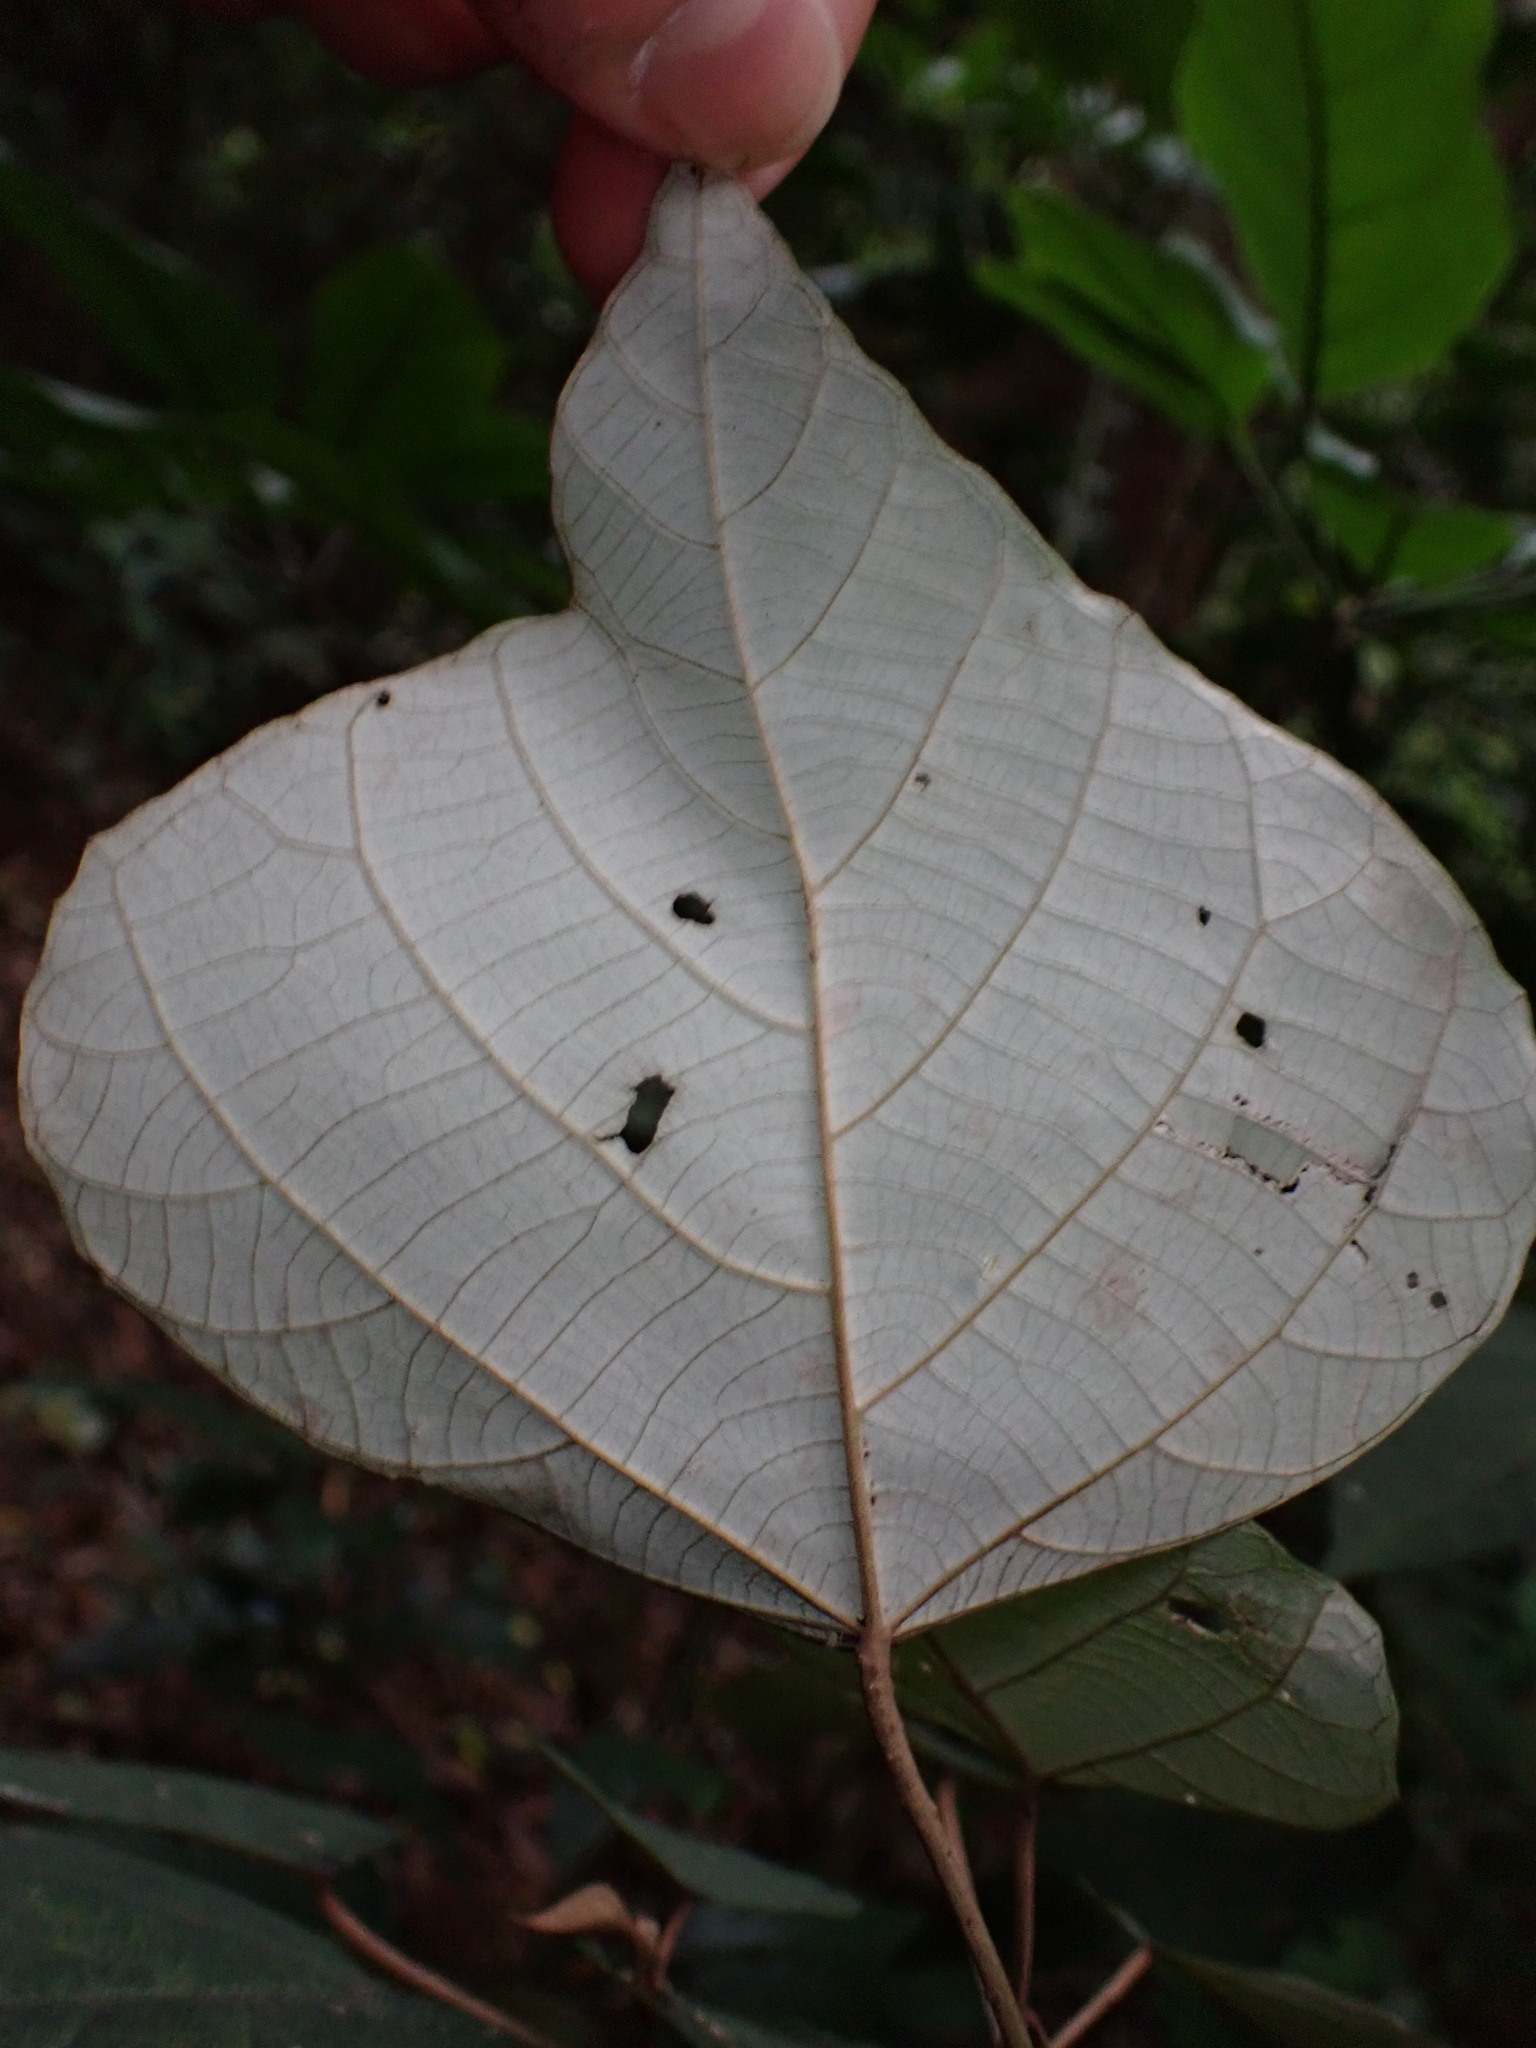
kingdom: Plantae
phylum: Tracheophyta
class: Magnoliopsida
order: Malpighiales
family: Euphorbiaceae
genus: Mallotus
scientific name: Mallotus paniculatus
